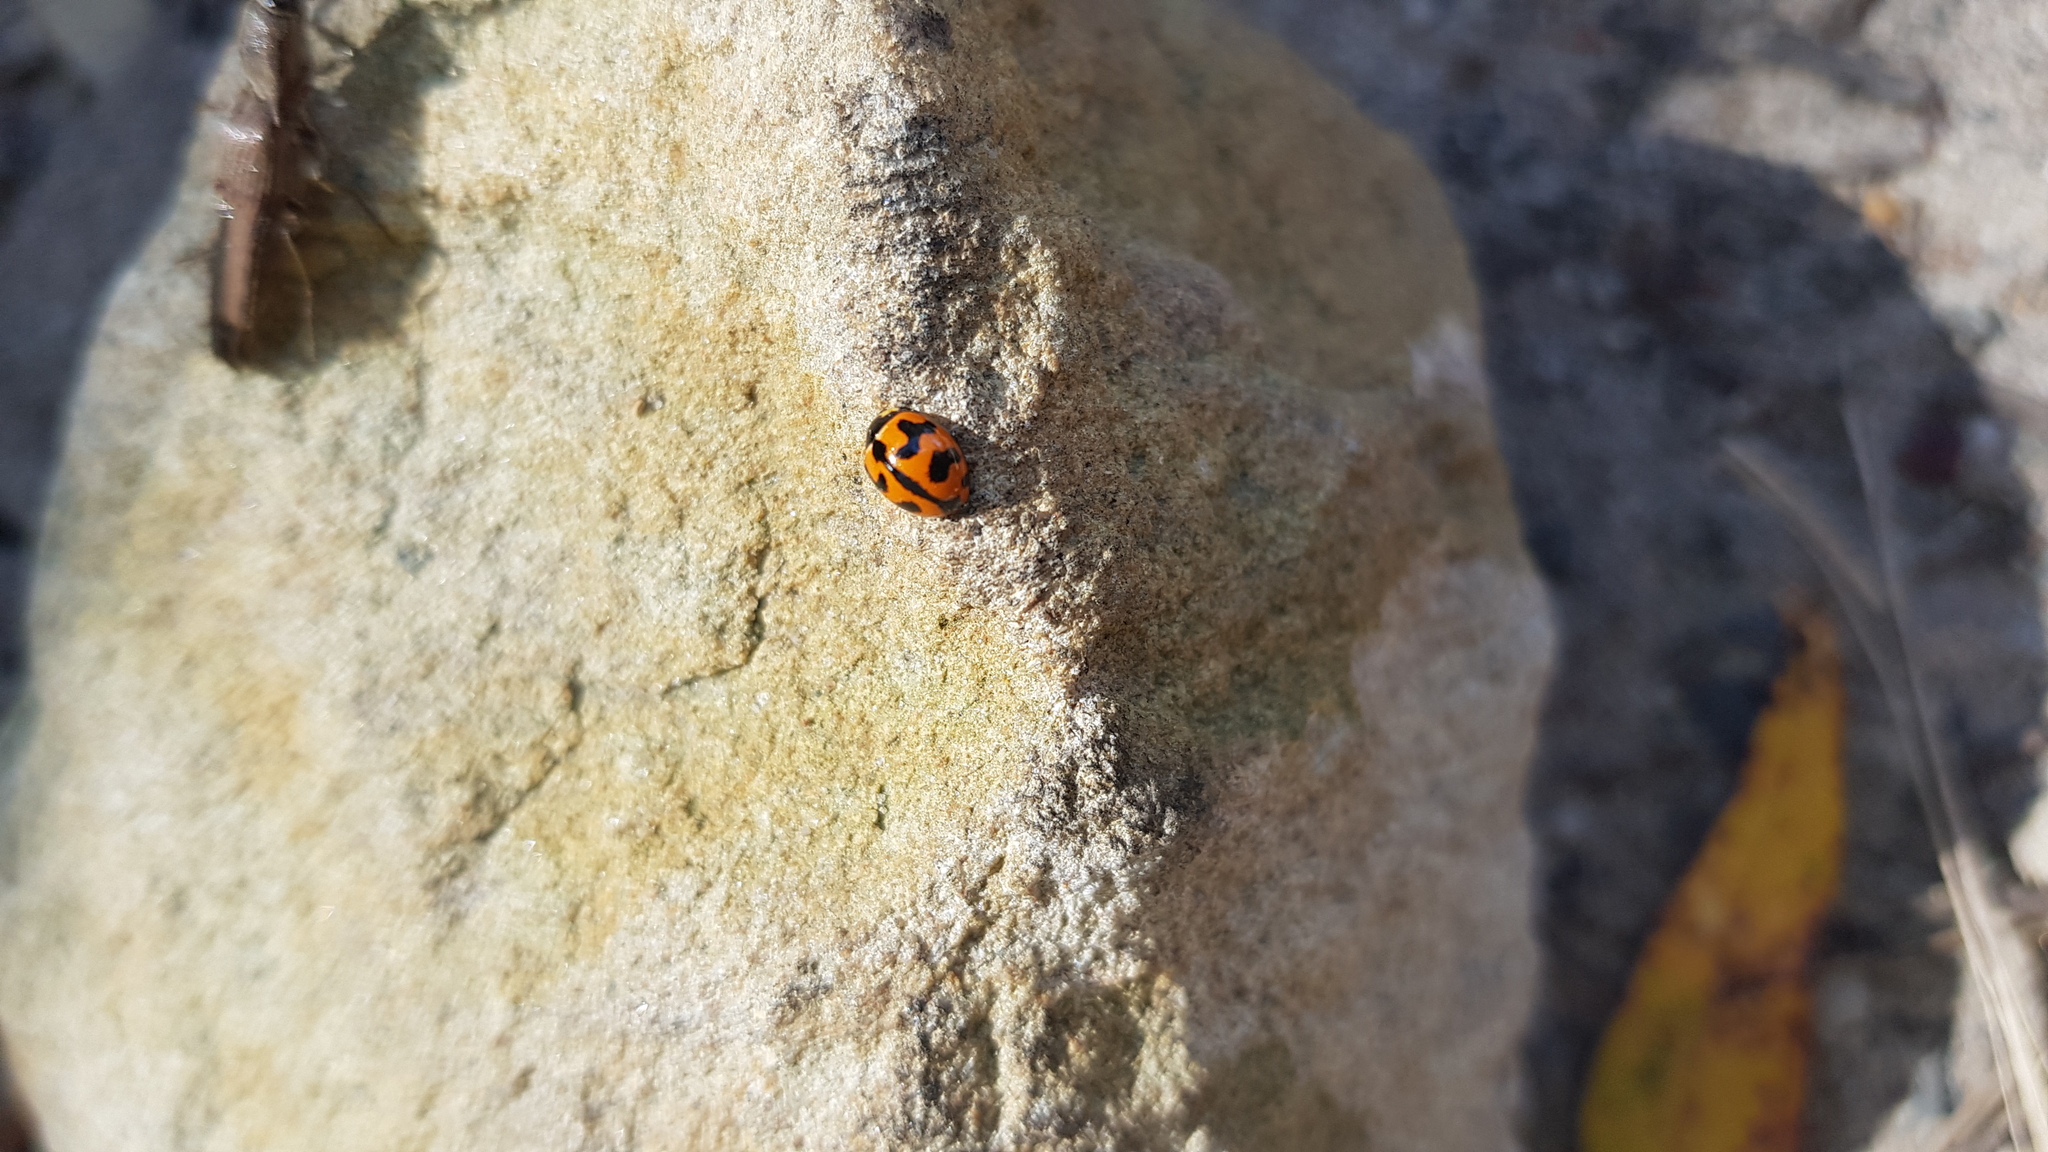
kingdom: Animalia
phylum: Arthropoda
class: Insecta
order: Coleoptera
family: Coccinellidae
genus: Coccinella
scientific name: Coccinella transversalis
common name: Transverse lady beetle
